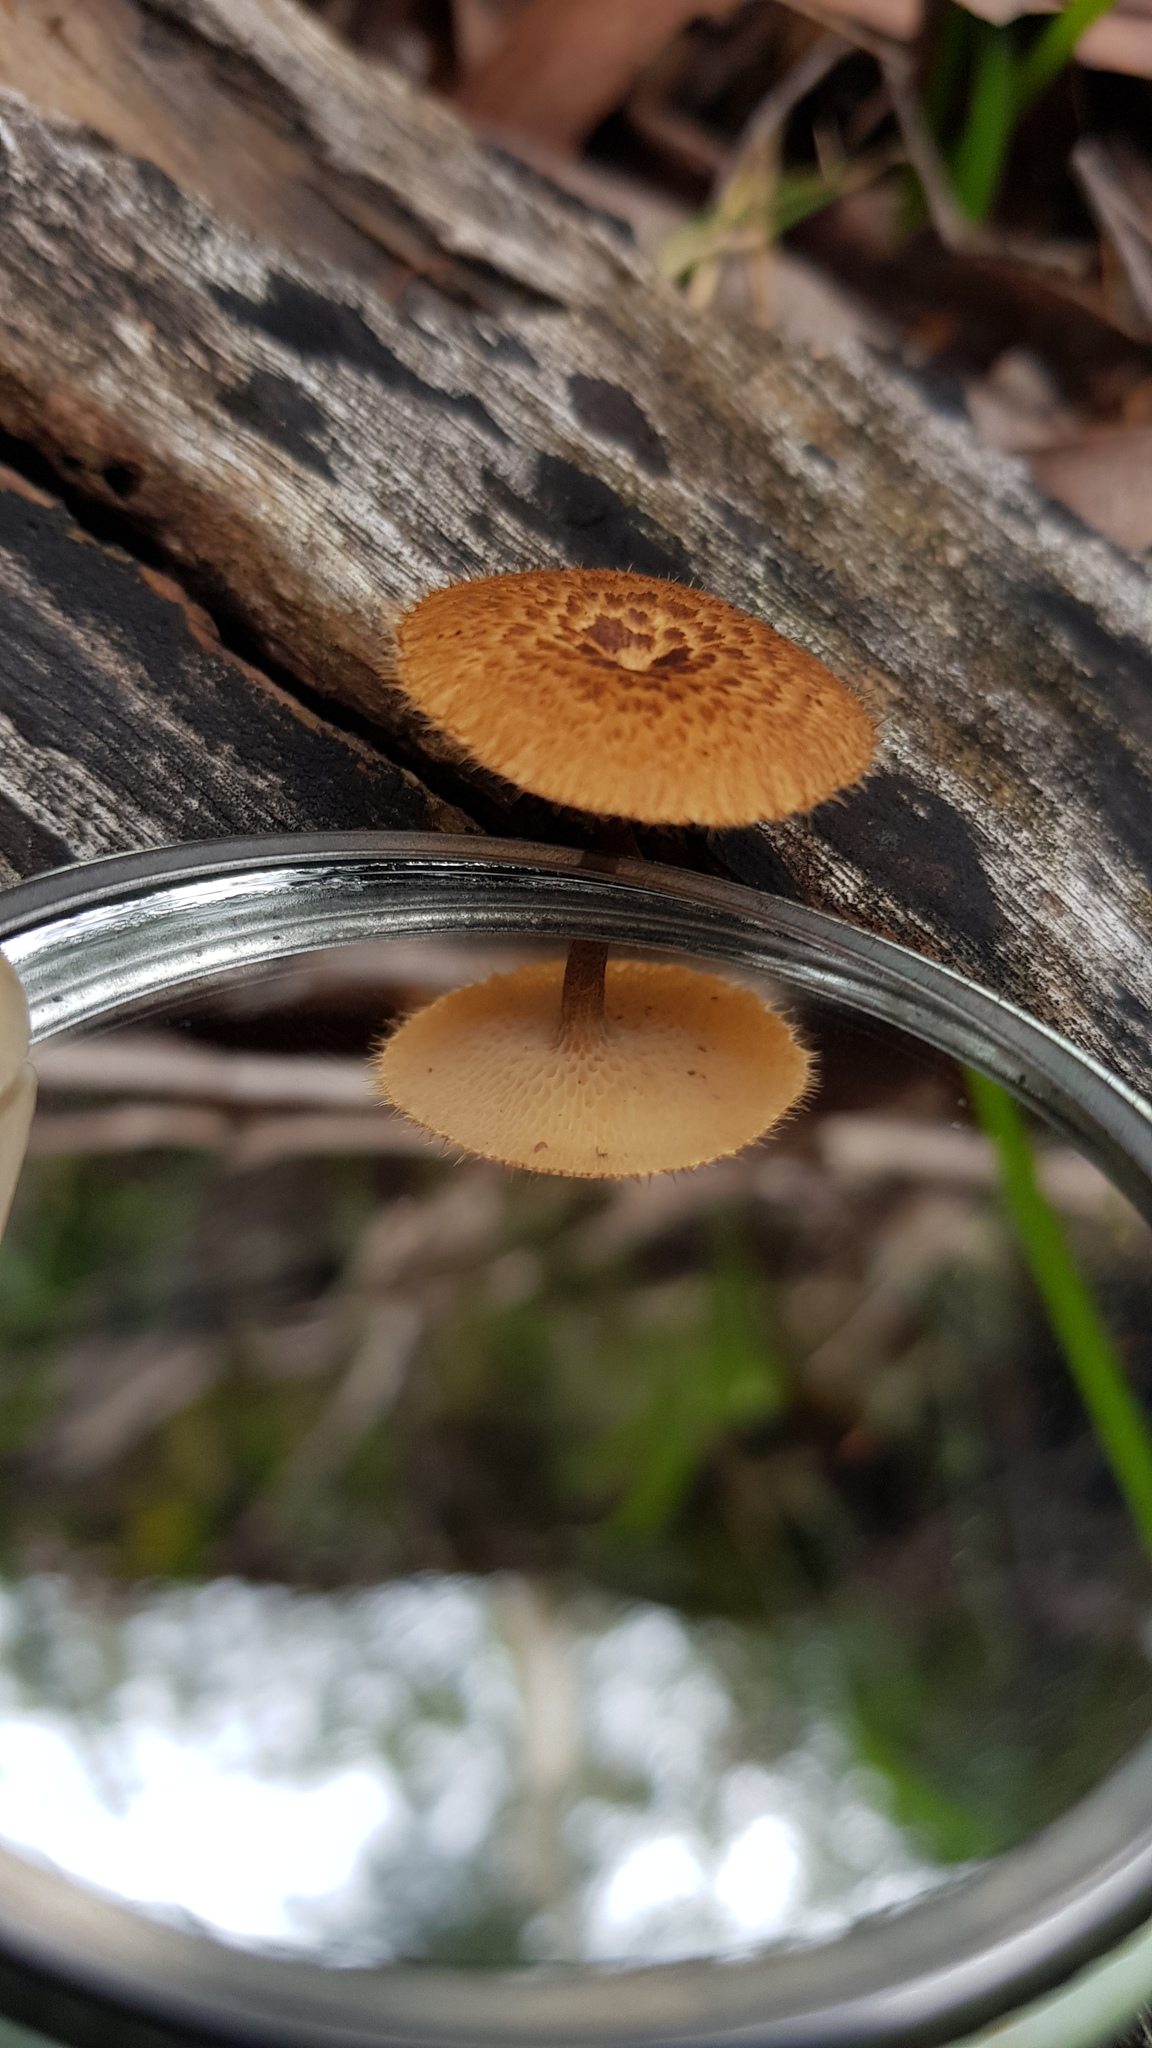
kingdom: Fungi
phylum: Basidiomycota
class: Agaricomycetes
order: Polyporales
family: Polyporaceae
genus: Lentinus
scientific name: Lentinus arcularius
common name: Spring polypore
